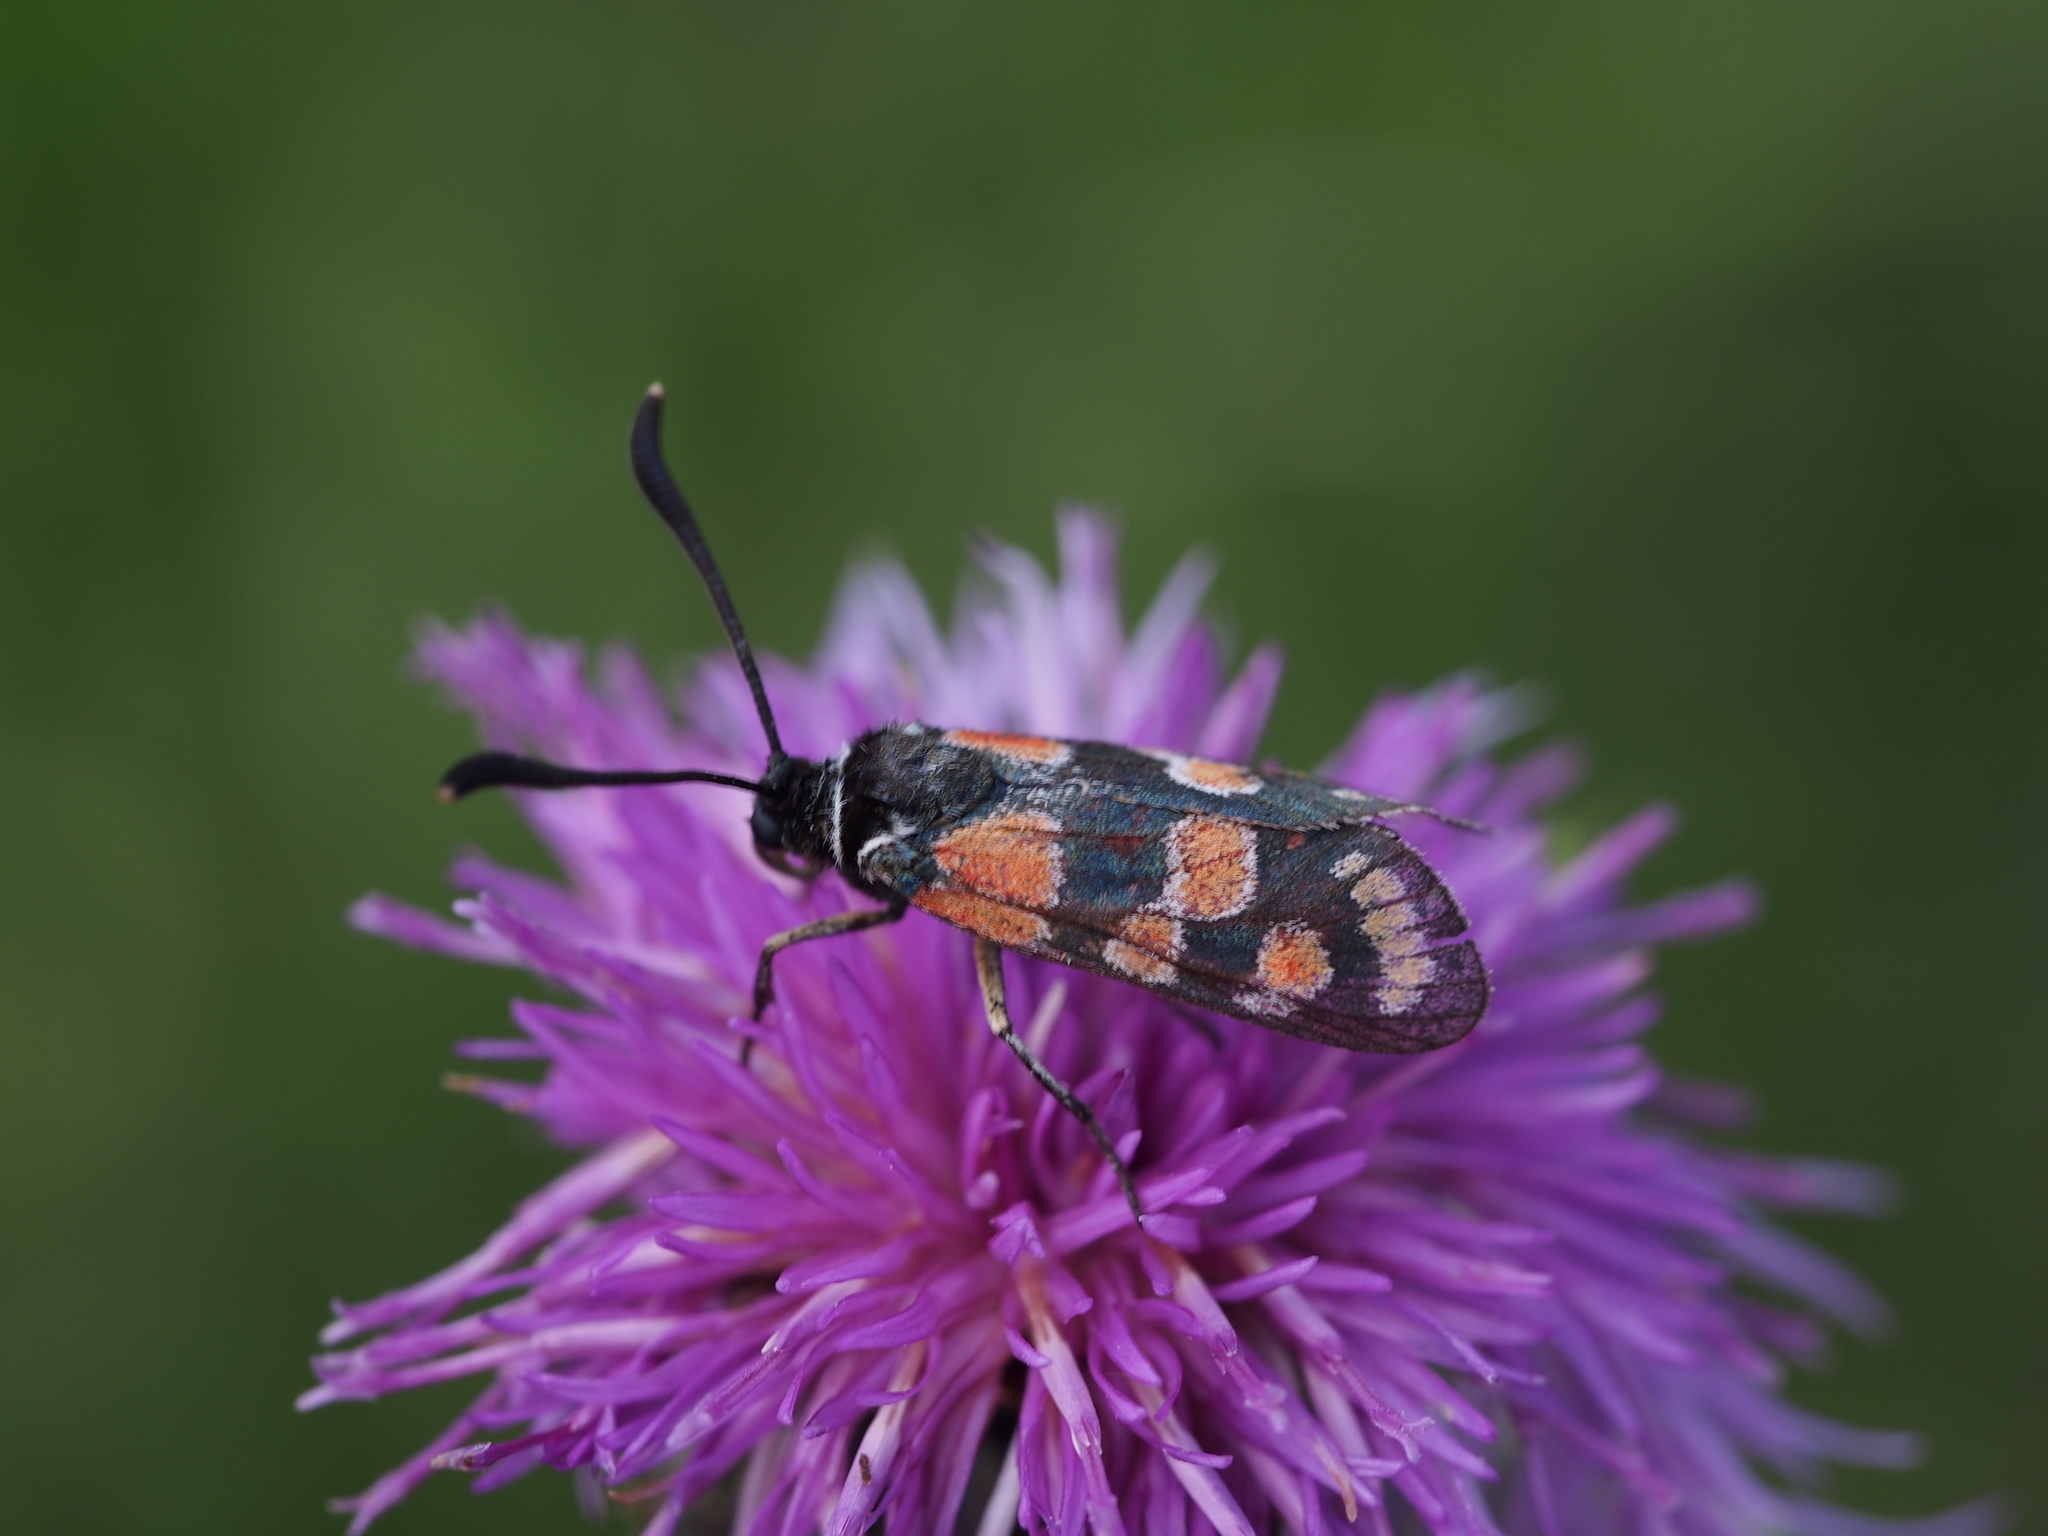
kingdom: Animalia
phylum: Arthropoda
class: Insecta
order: Lepidoptera
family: Zygaenidae
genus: Zygaena
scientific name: Zygaena carniolica
